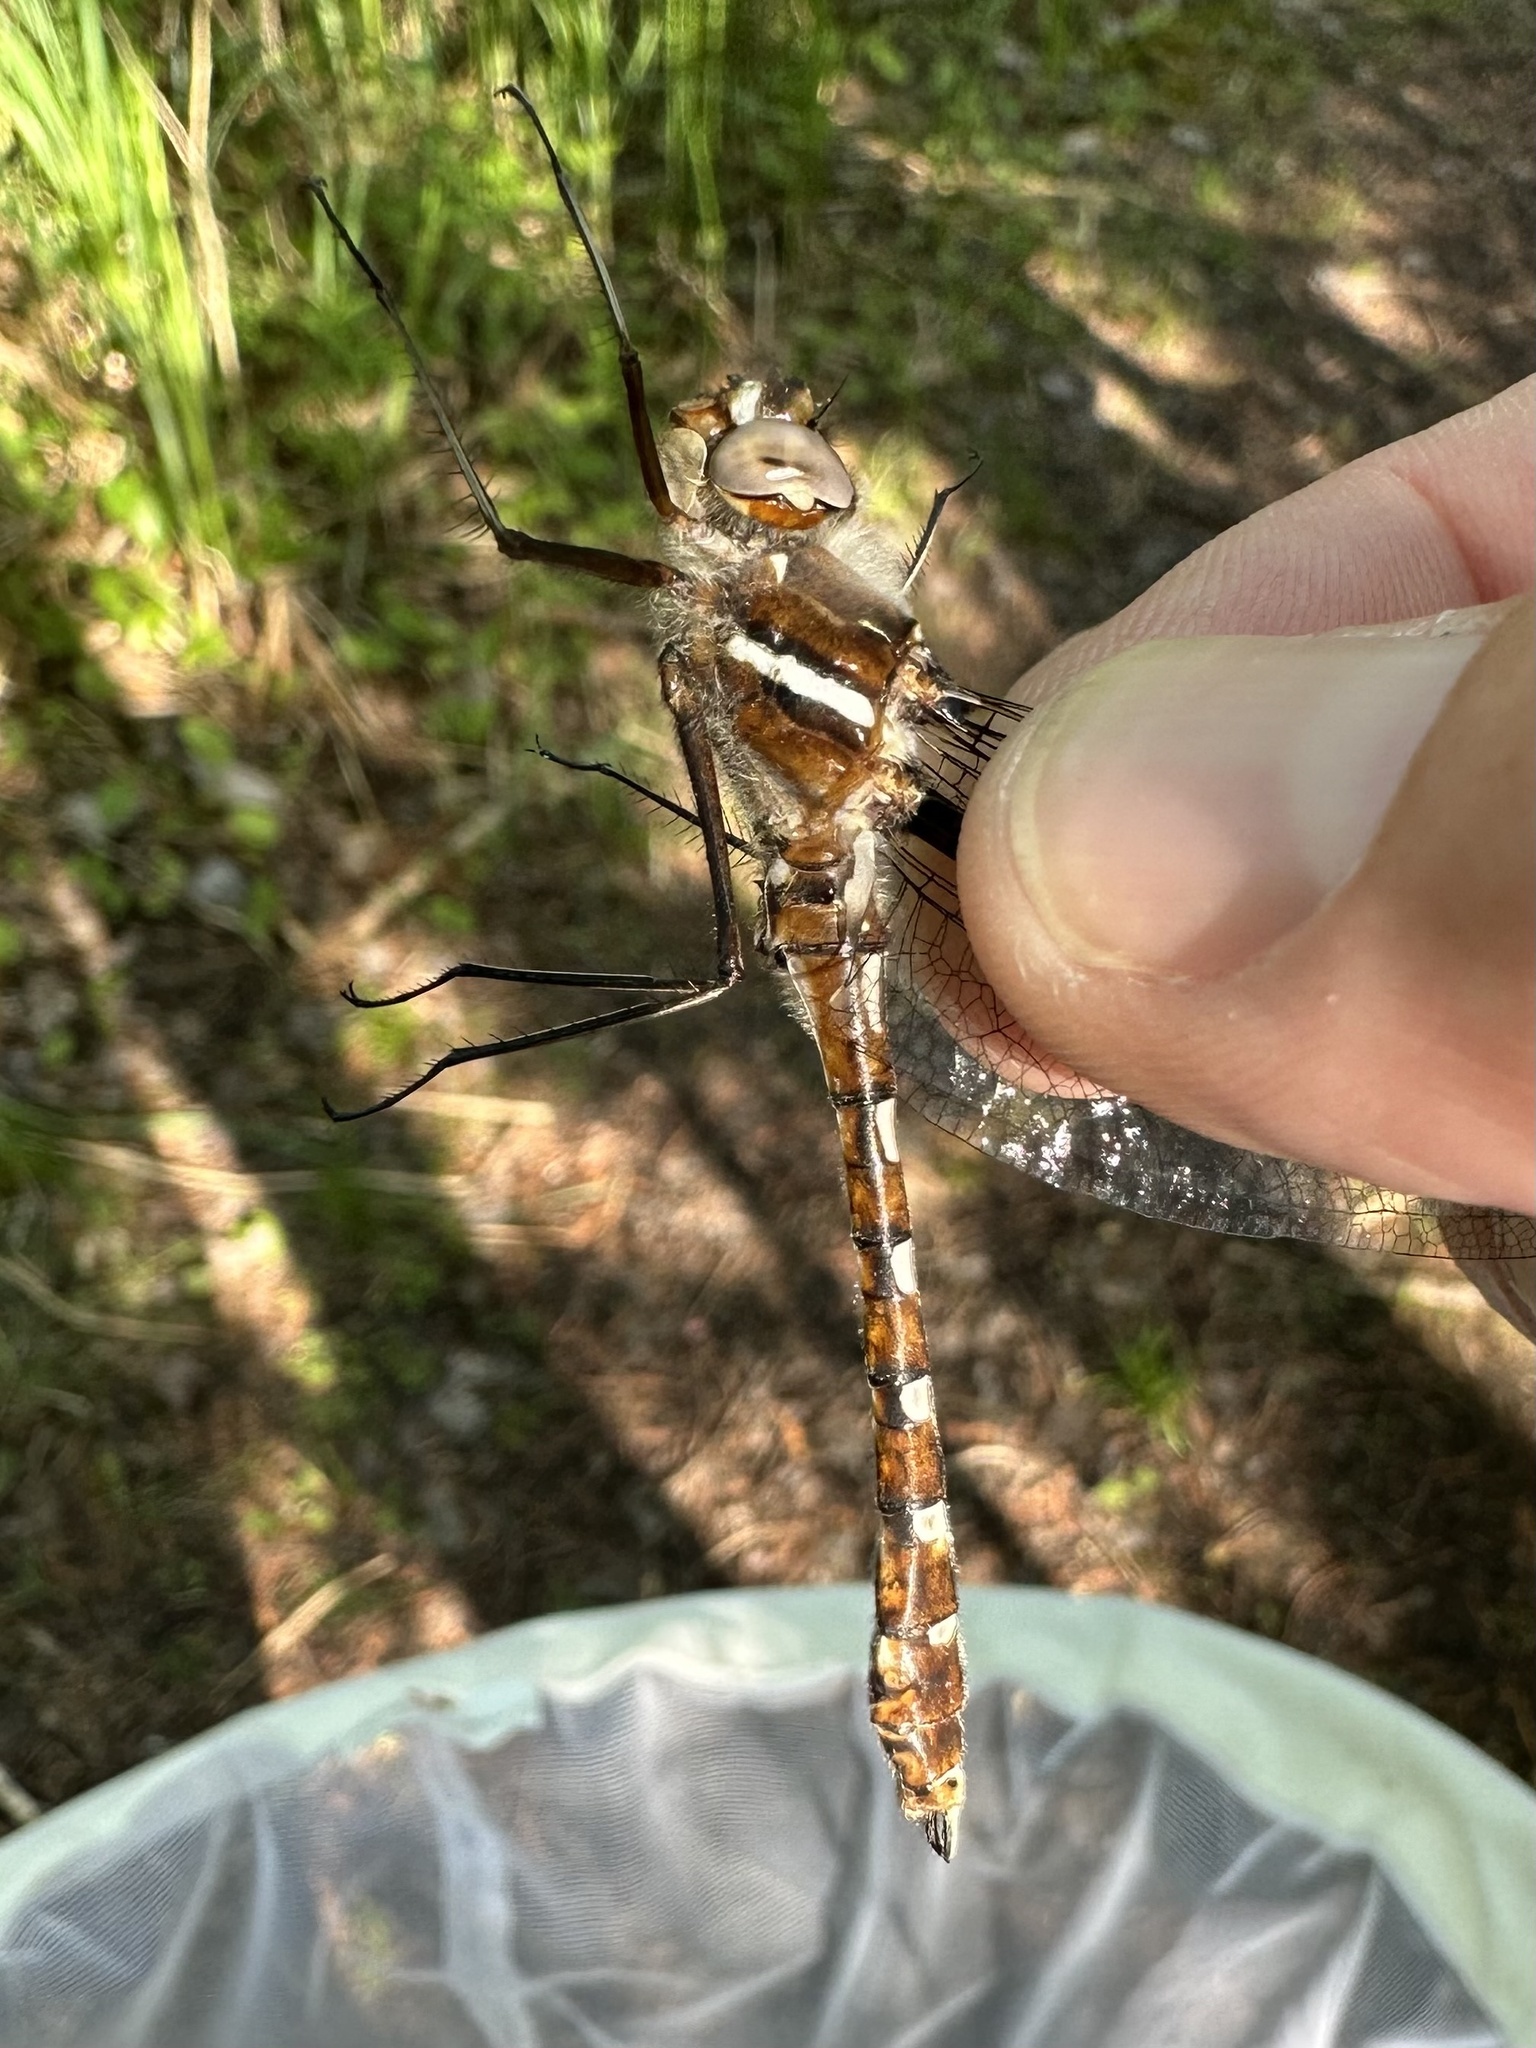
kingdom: Animalia
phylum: Arthropoda
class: Insecta
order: Odonata
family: Macromiidae
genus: Didymops
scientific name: Didymops transversa
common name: Stream cruiser
